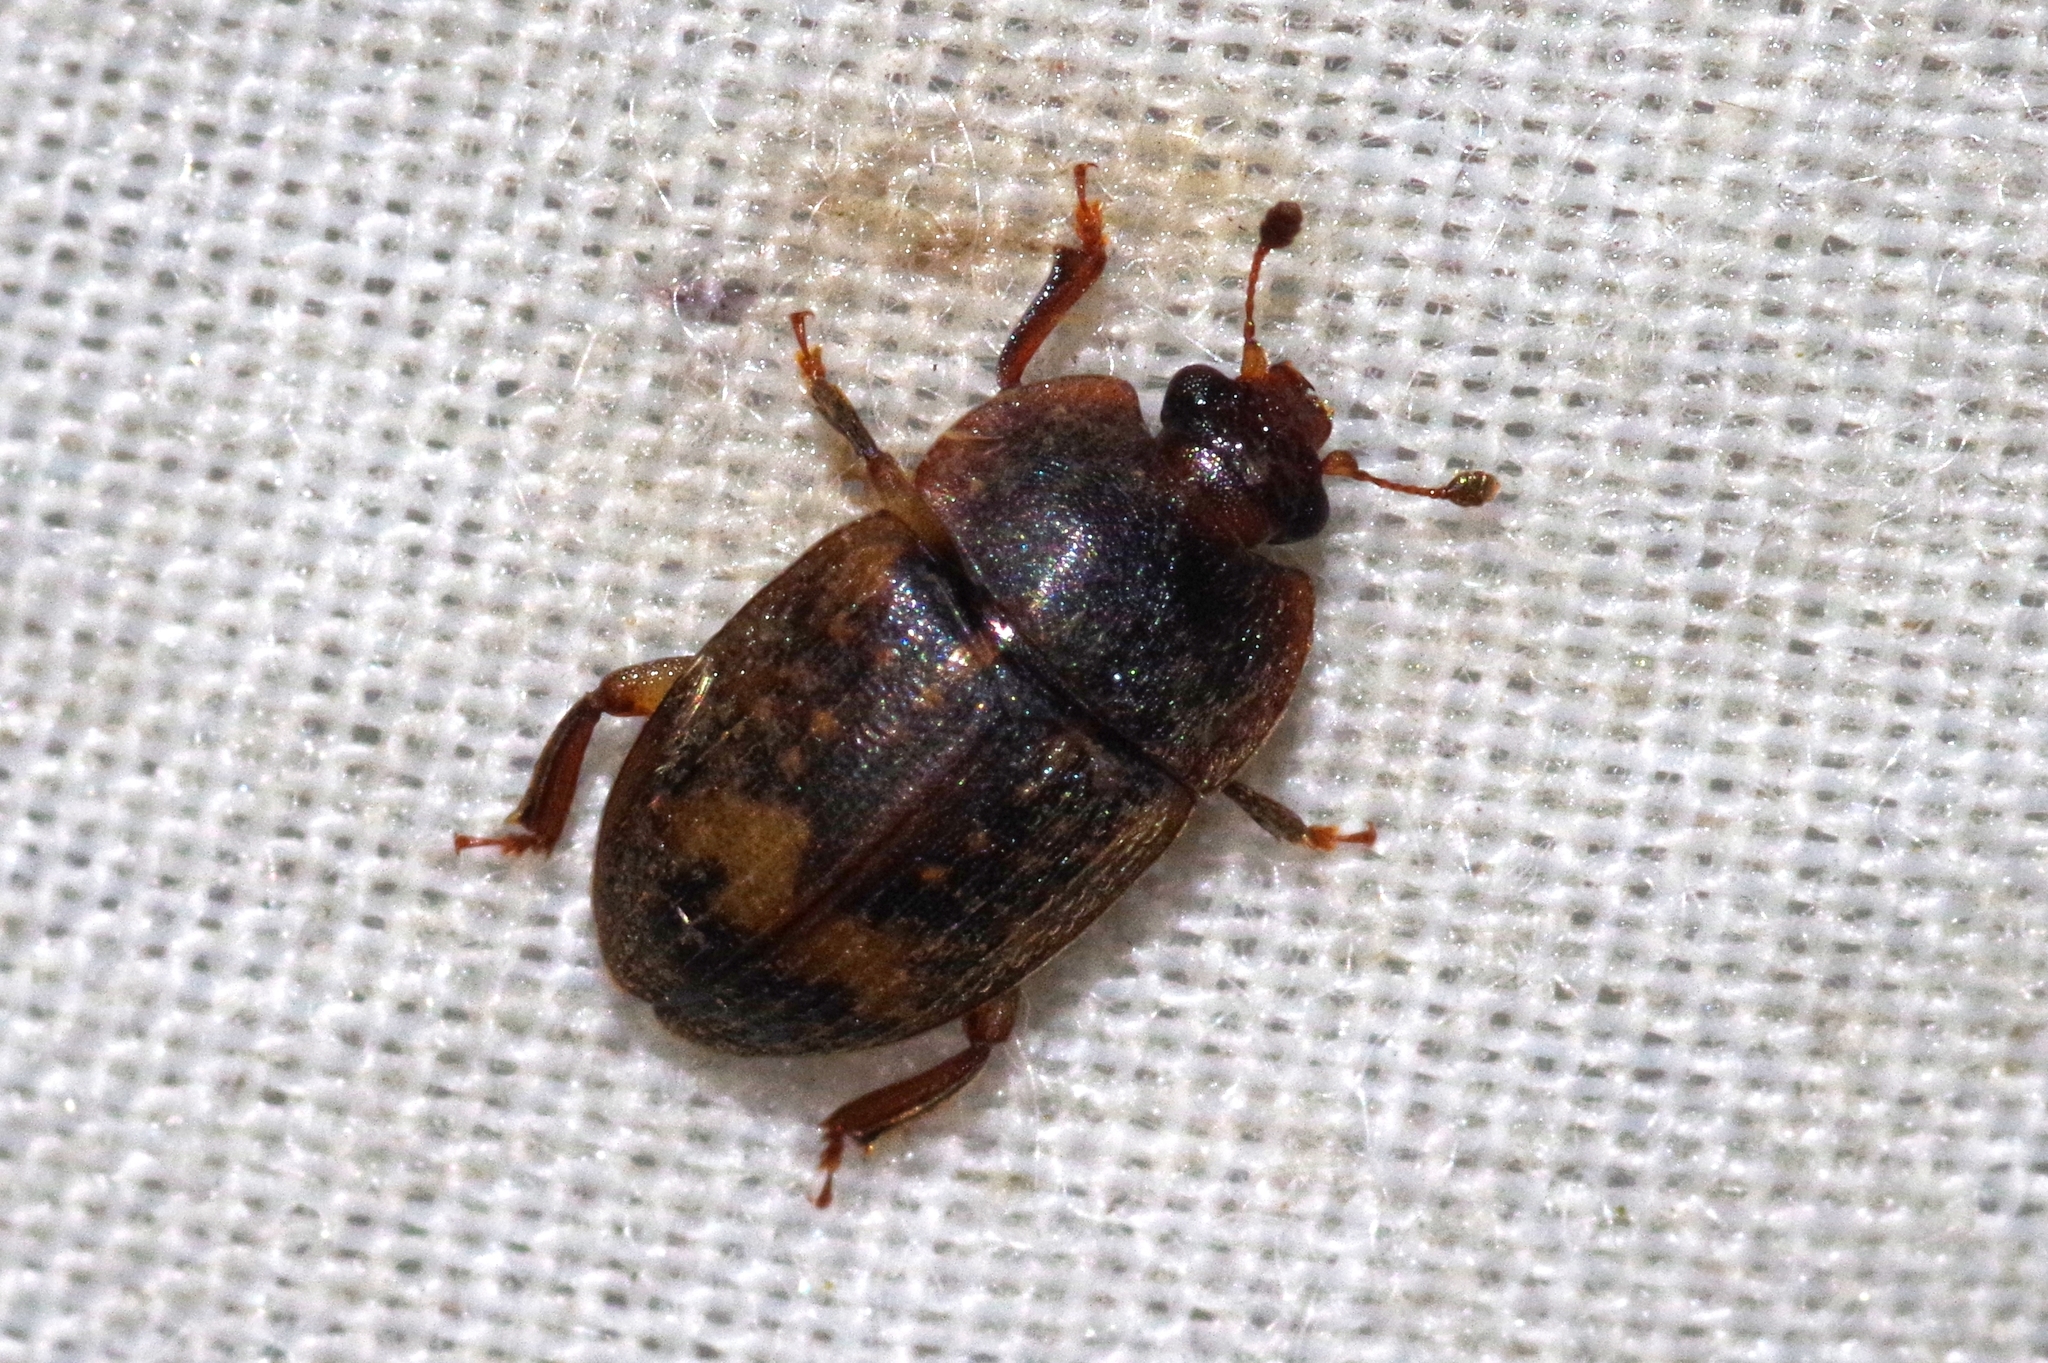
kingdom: Animalia
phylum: Arthropoda
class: Insecta
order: Coleoptera
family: Nitidulidae
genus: Phenolia
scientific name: Phenolia picta
